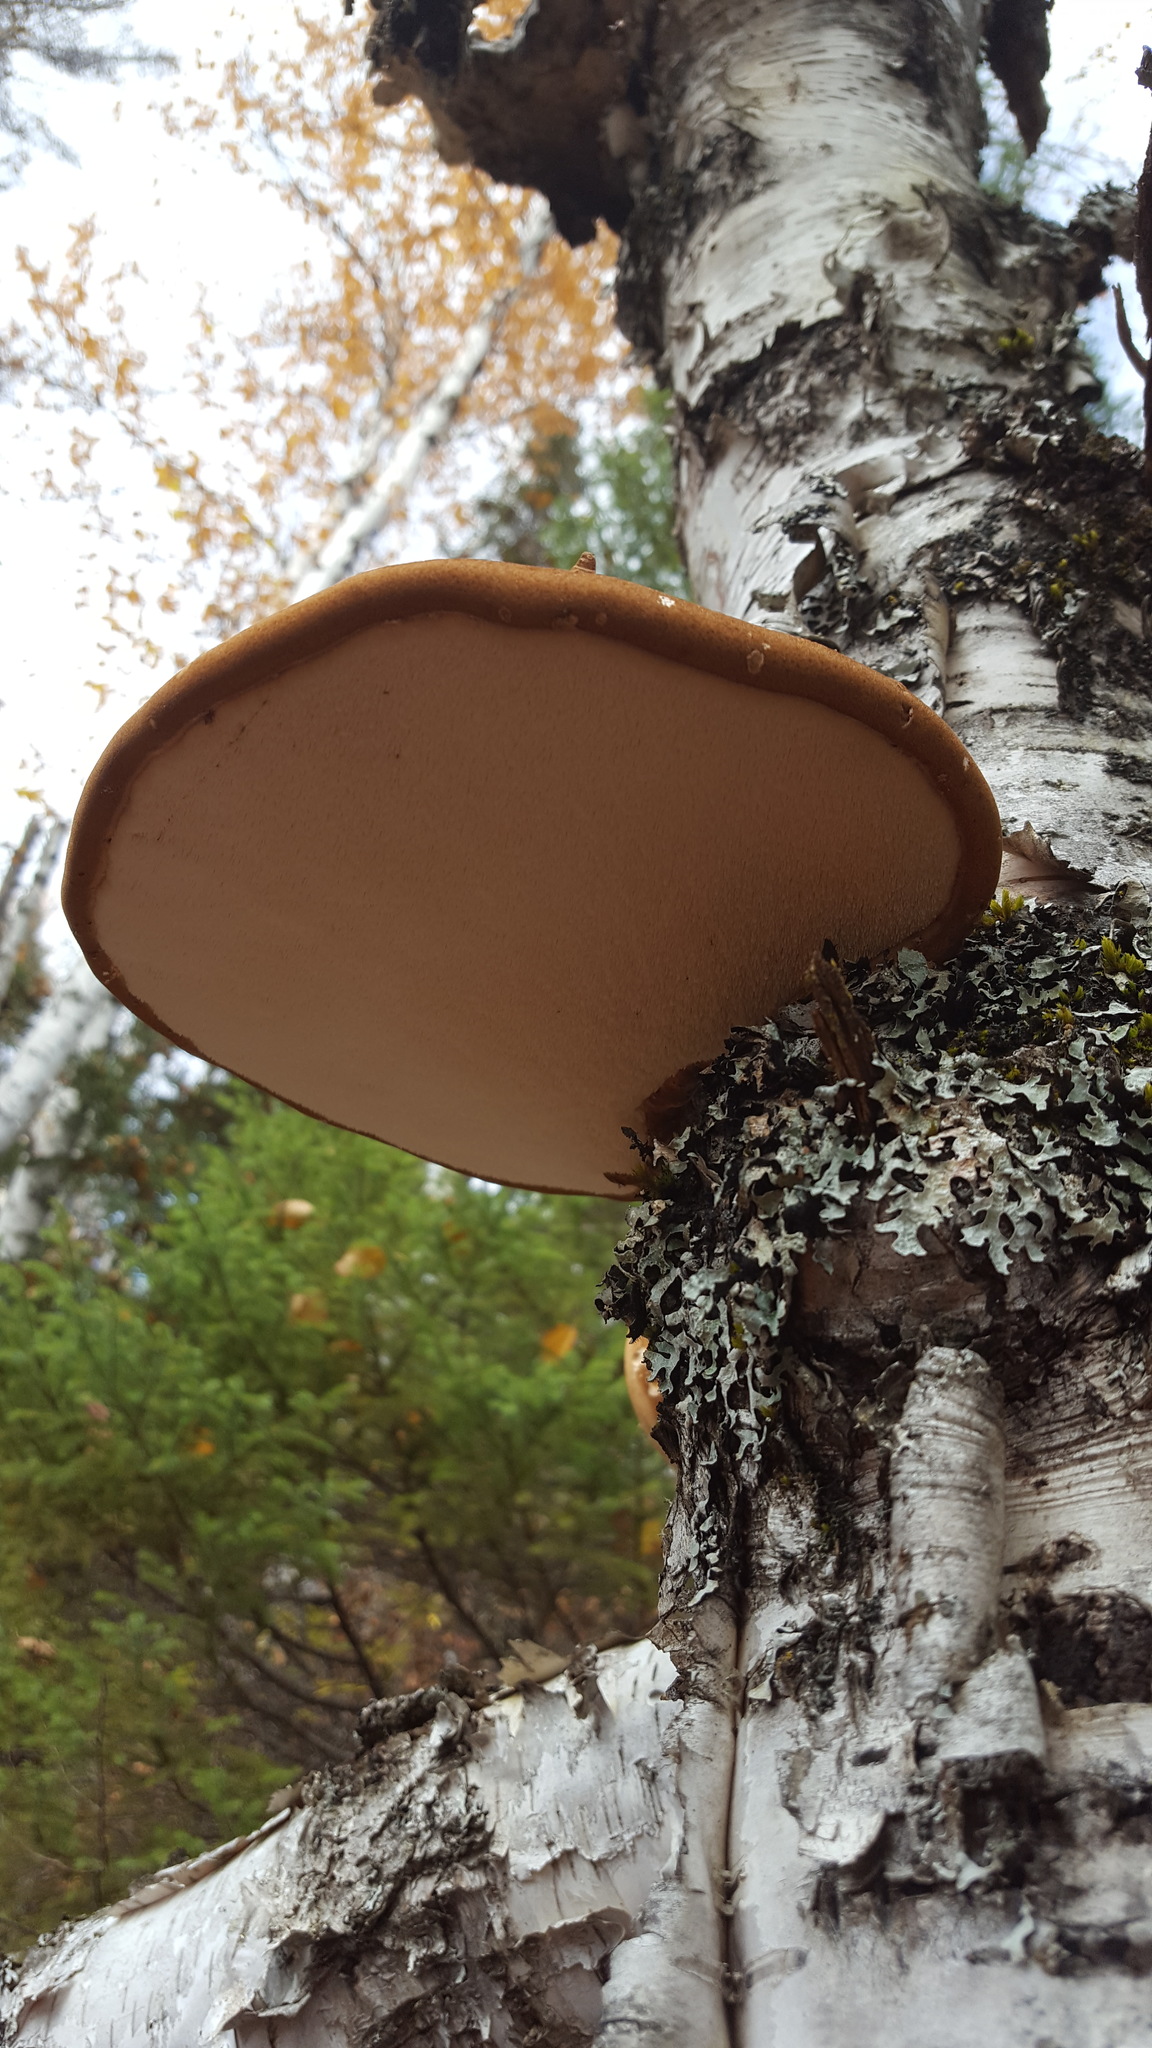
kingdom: Fungi
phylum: Basidiomycota
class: Agaricomycetes
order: Polyporales
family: Fomitopsidaceae
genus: Fomitopsis
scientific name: Fomitopsis betulina
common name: Birch polypore
